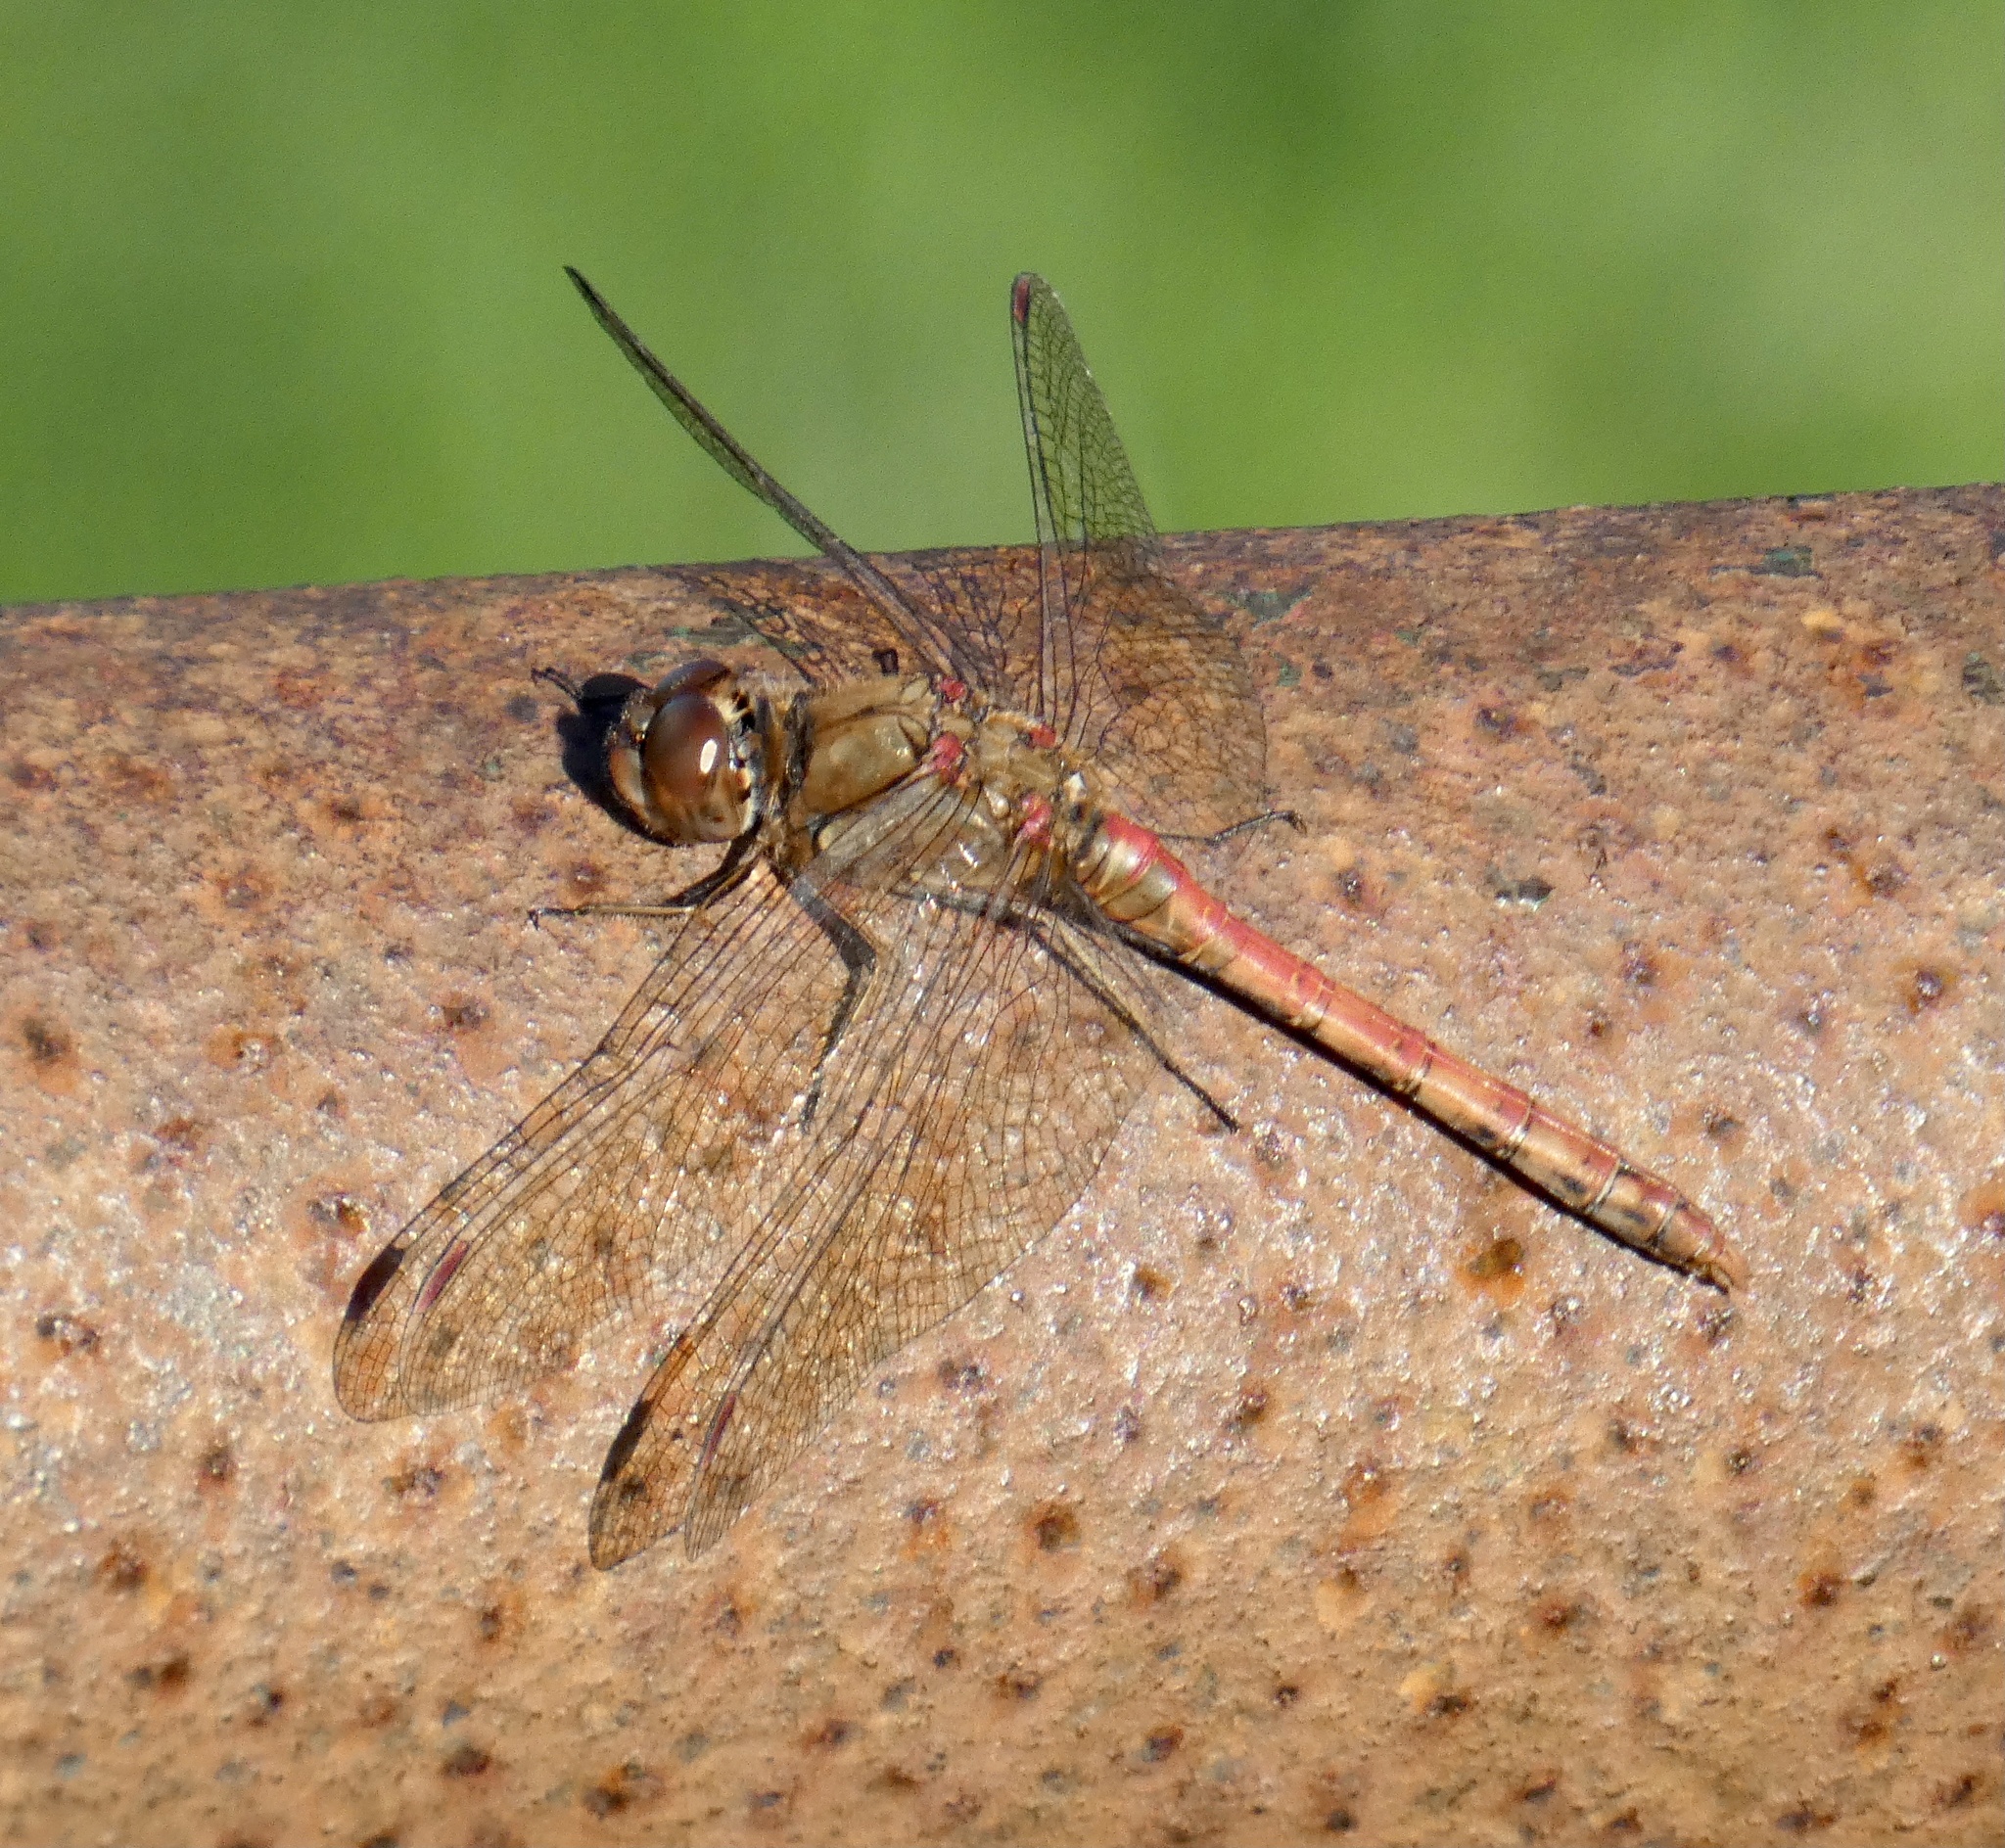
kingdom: Animalia
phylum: Arthropoda
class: Insecta
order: Odonata
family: Libellulidae
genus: Sympetrum
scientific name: Sympetrum striolatum
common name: Common darter
